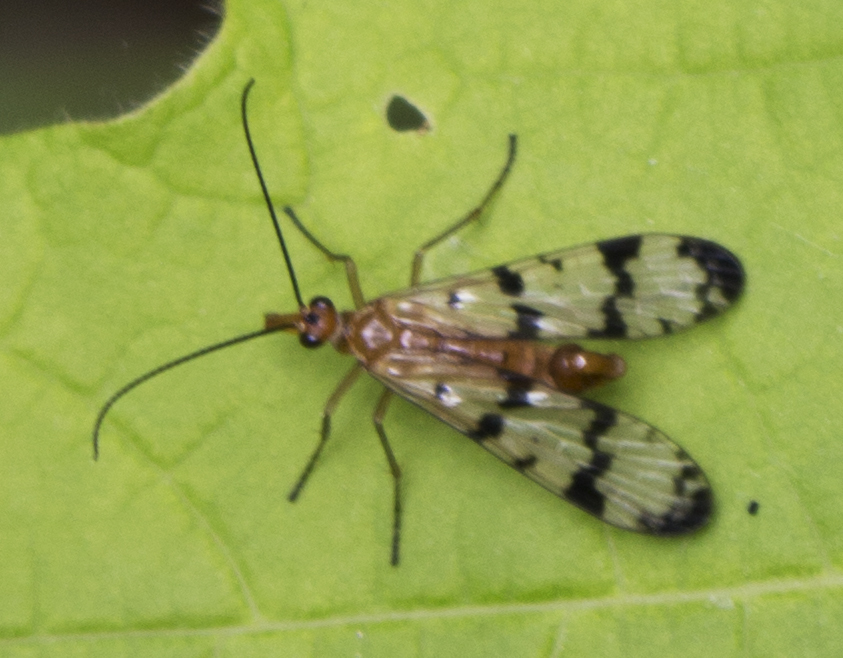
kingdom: Animalia
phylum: Arthropoda
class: Insecta
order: Mecoptera
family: Panorpidae
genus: Panorpa
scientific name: Panorpa insolens
